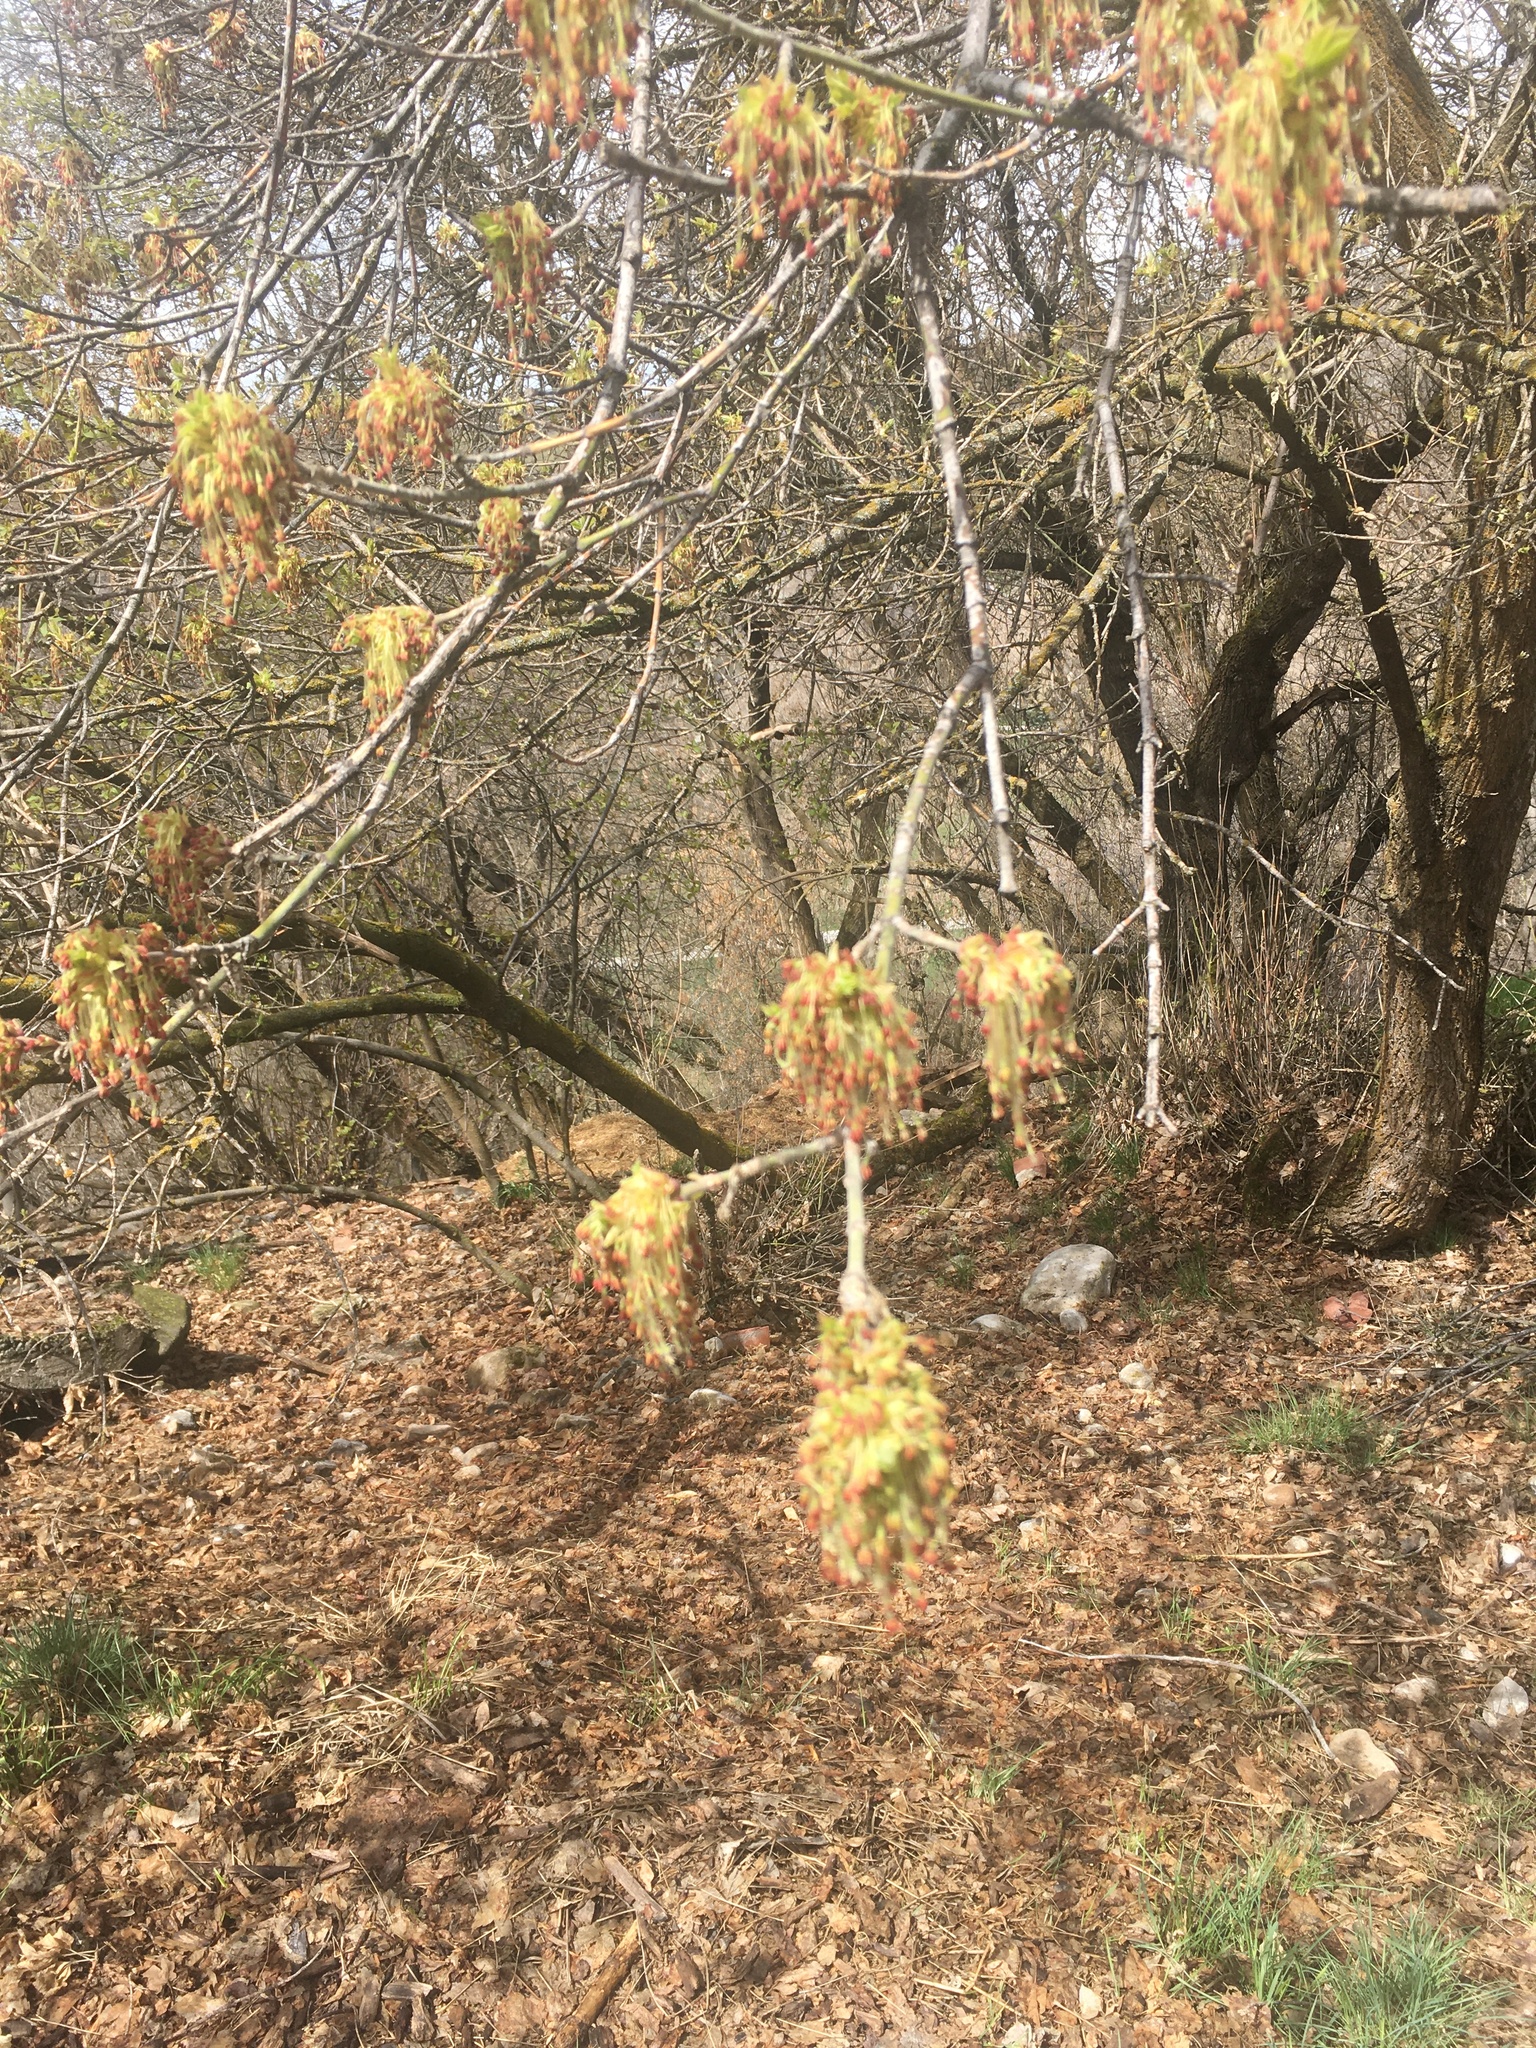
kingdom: Plantae
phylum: Tracheophyta
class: Magnoliopsida
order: Sapindales
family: Sapindaceae
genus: Acer
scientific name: Acer negundo
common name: Ashleaf maple
